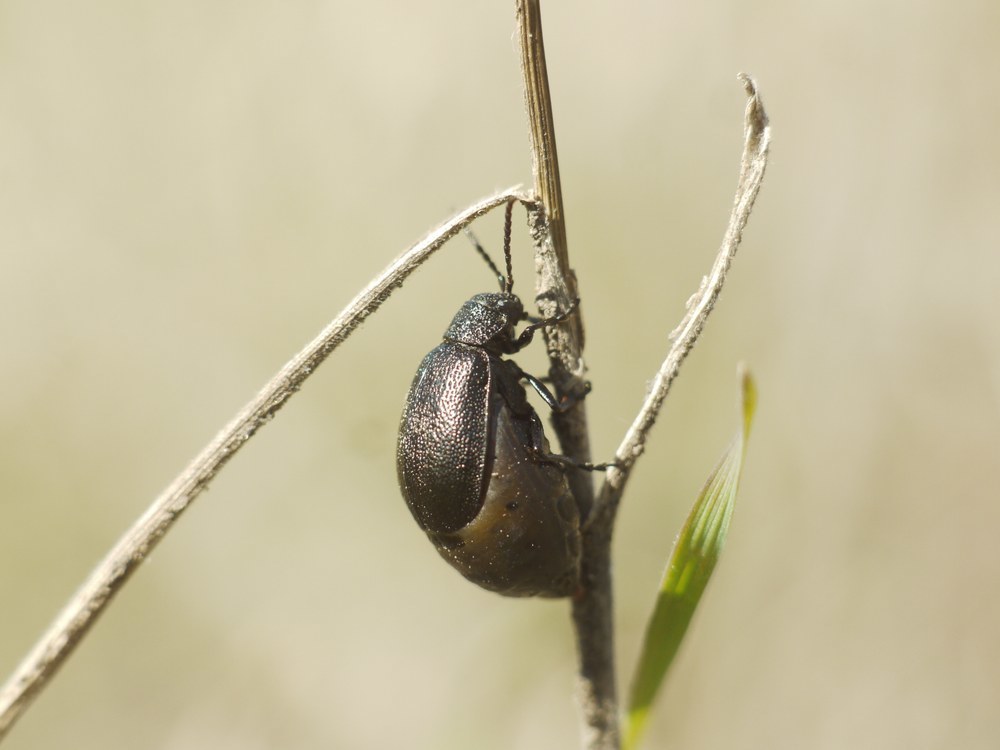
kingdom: Animalia
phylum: Arthropoda
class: Insecta
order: Coleoptera
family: Chrysomelidae
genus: Galeruca
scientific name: Galeruca tanaceti
